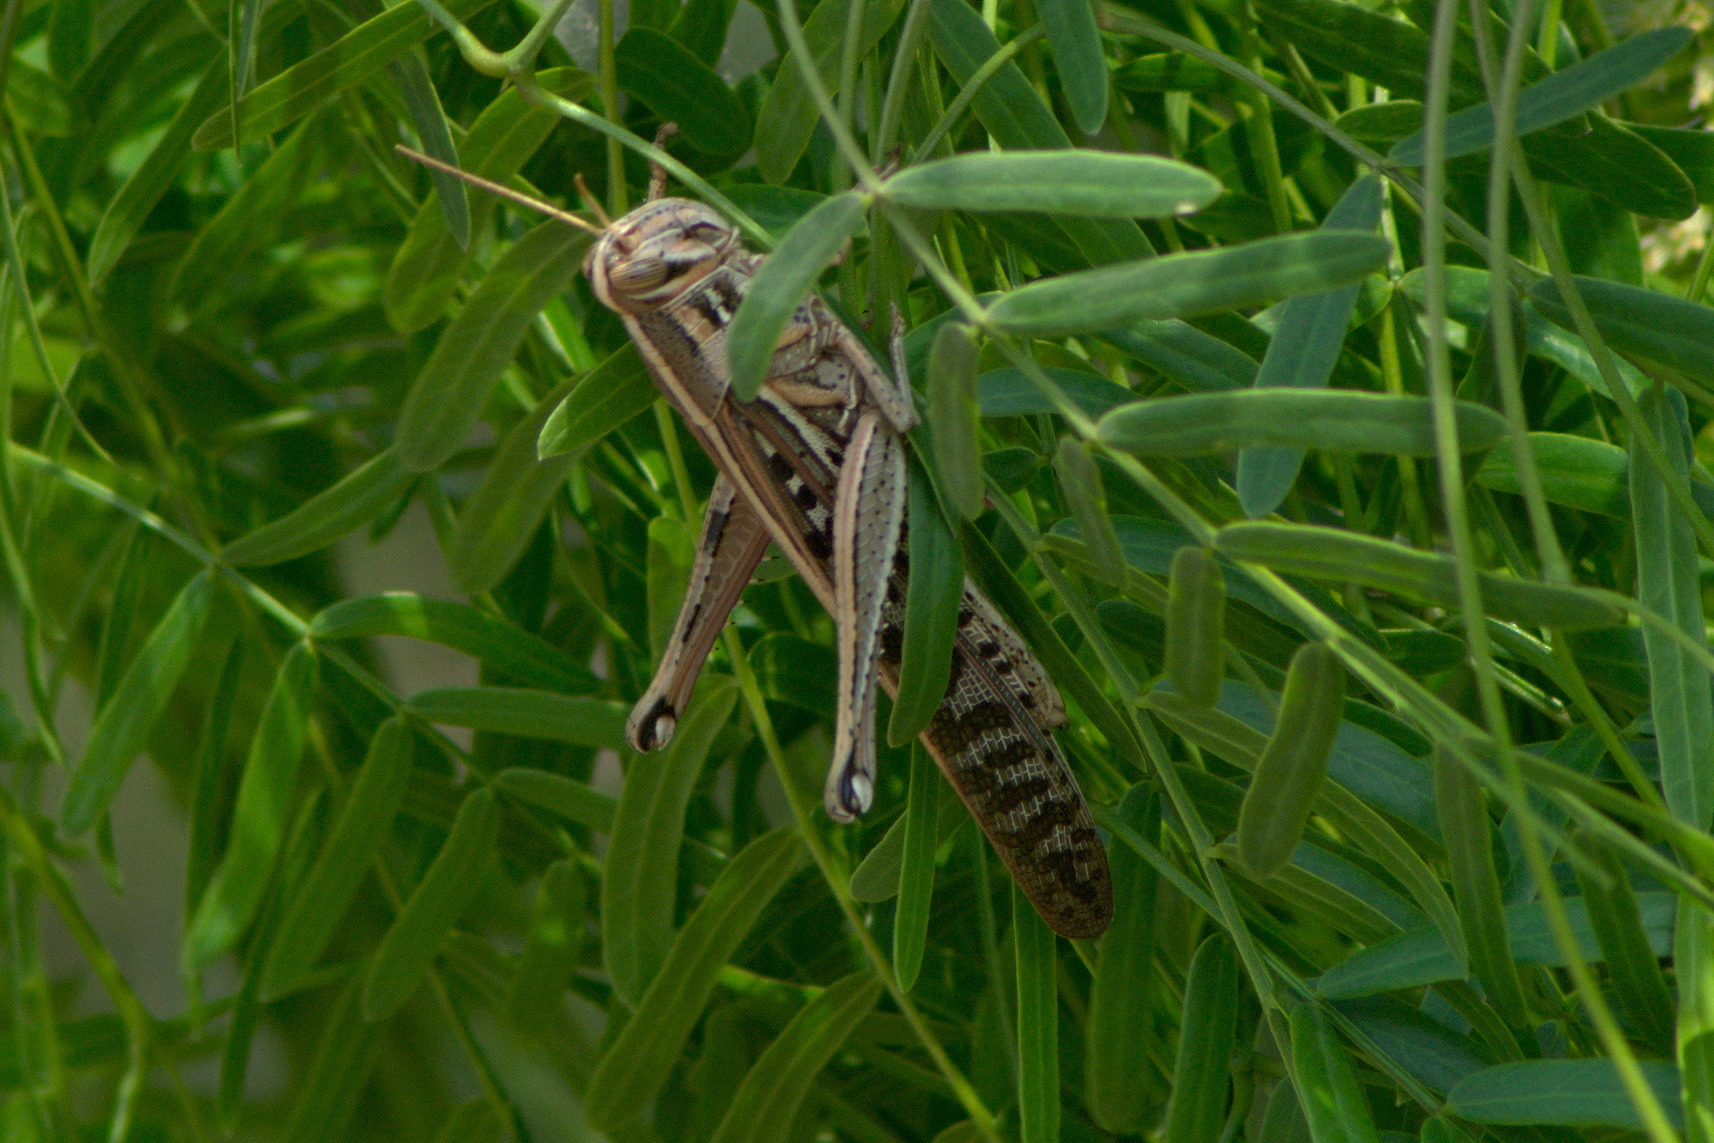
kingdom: Animalia
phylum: Arthropoda
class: Insecta
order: Orthoptera
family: Acrididae
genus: Schistocerca
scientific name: Schistocerca americana
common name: American bird locust
